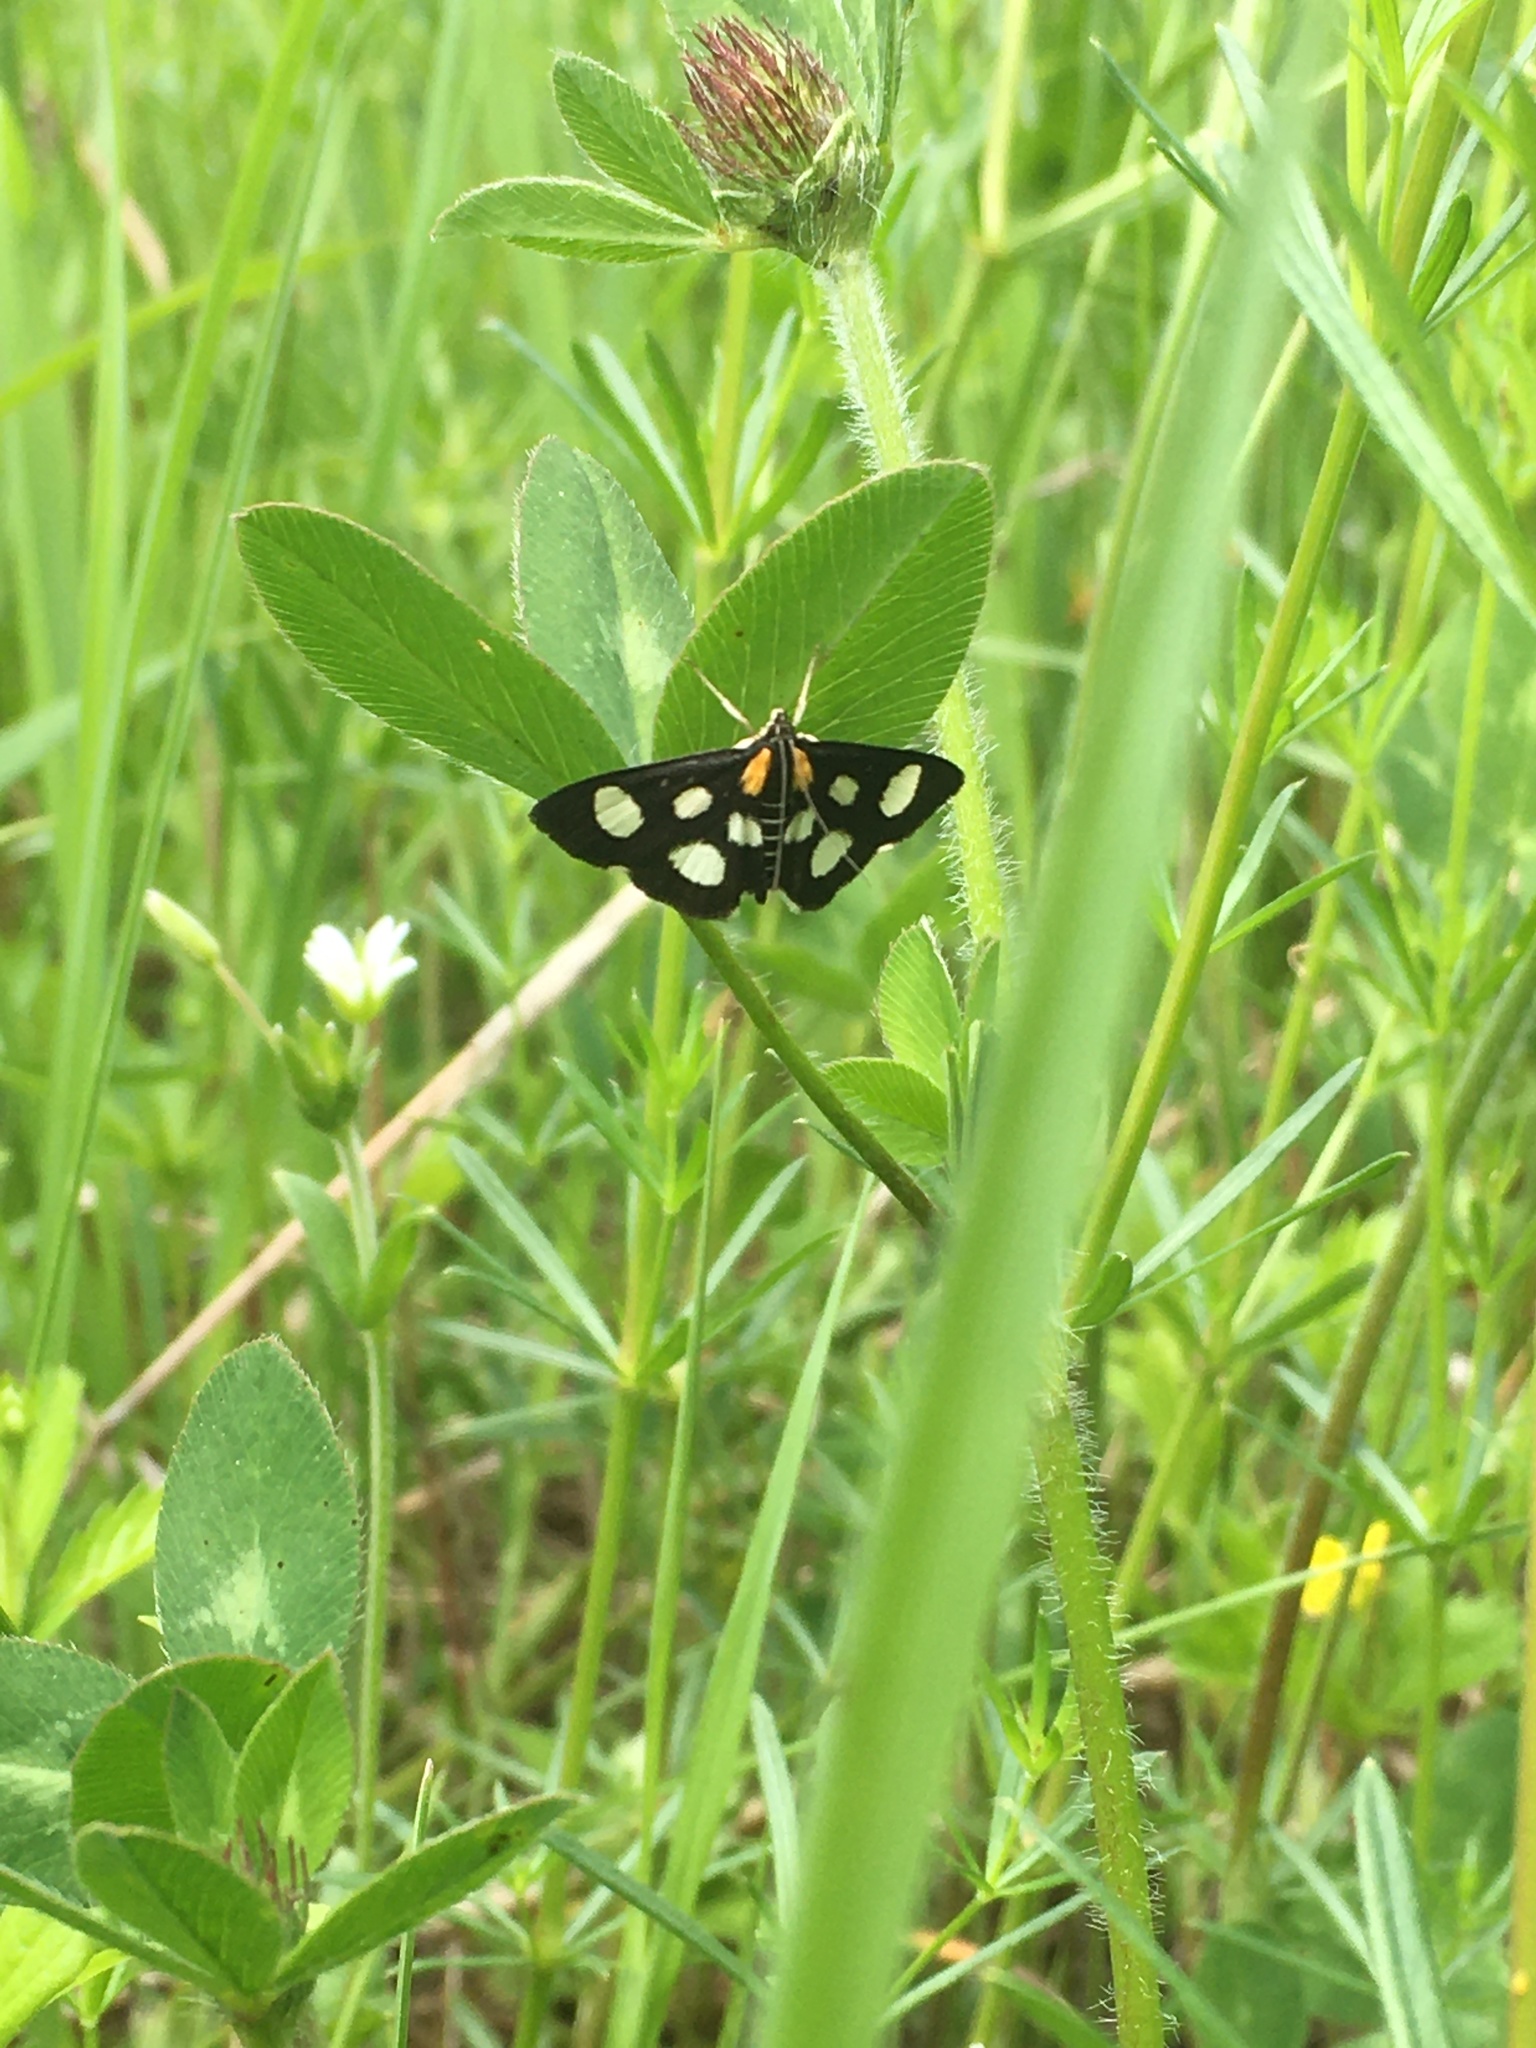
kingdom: Animalia
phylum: Arthropoda
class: Insecta
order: Lepidoptera
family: Crambidae
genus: Anania
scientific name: Anania funebris
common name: White-spotted sable moth
